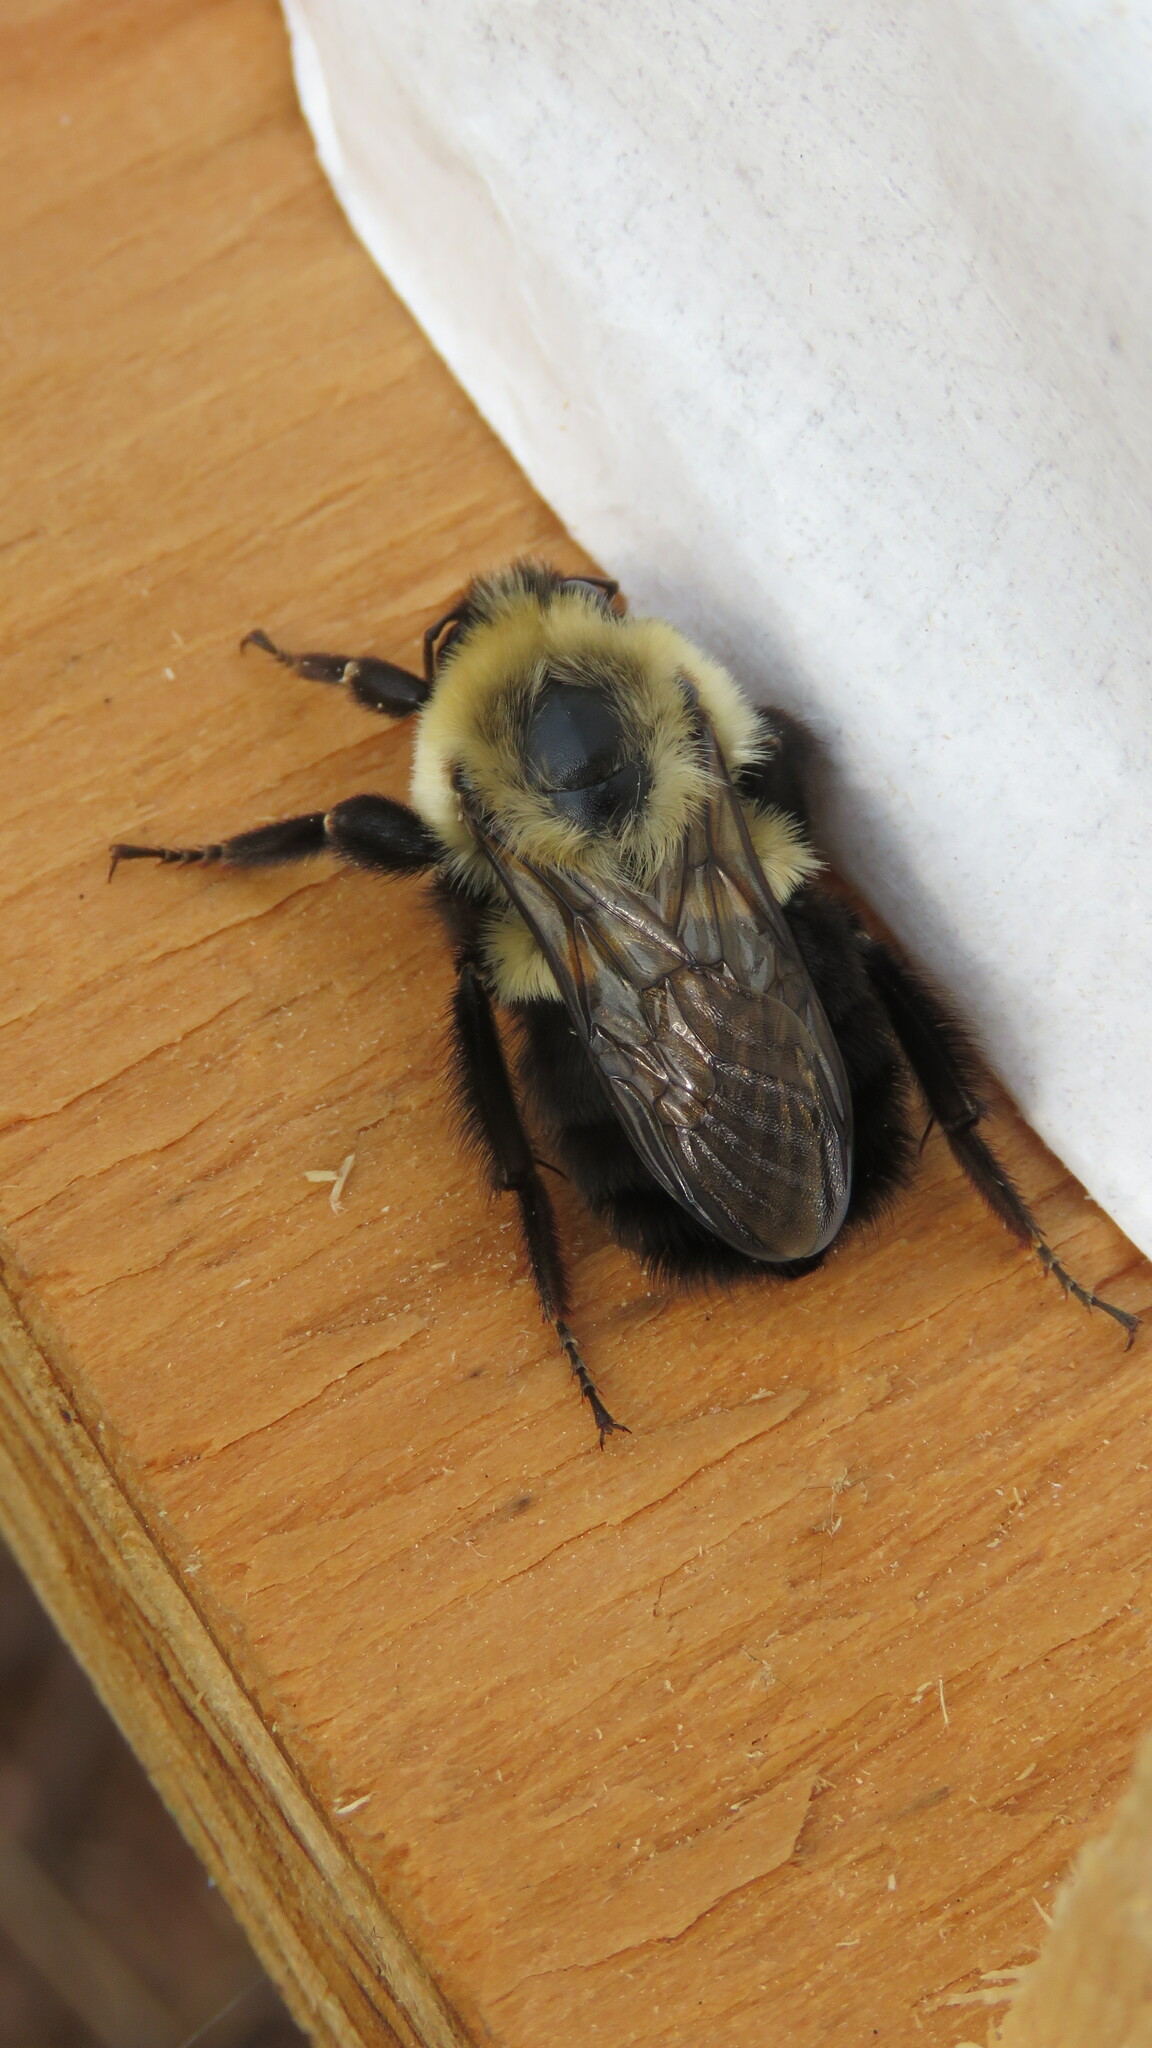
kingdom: Animalia
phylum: Arthropoda
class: Insecta
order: Hymenoptera
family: Apidae
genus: Bombus
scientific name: Bombus bimaculatus
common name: Two-spotted bumble bee
